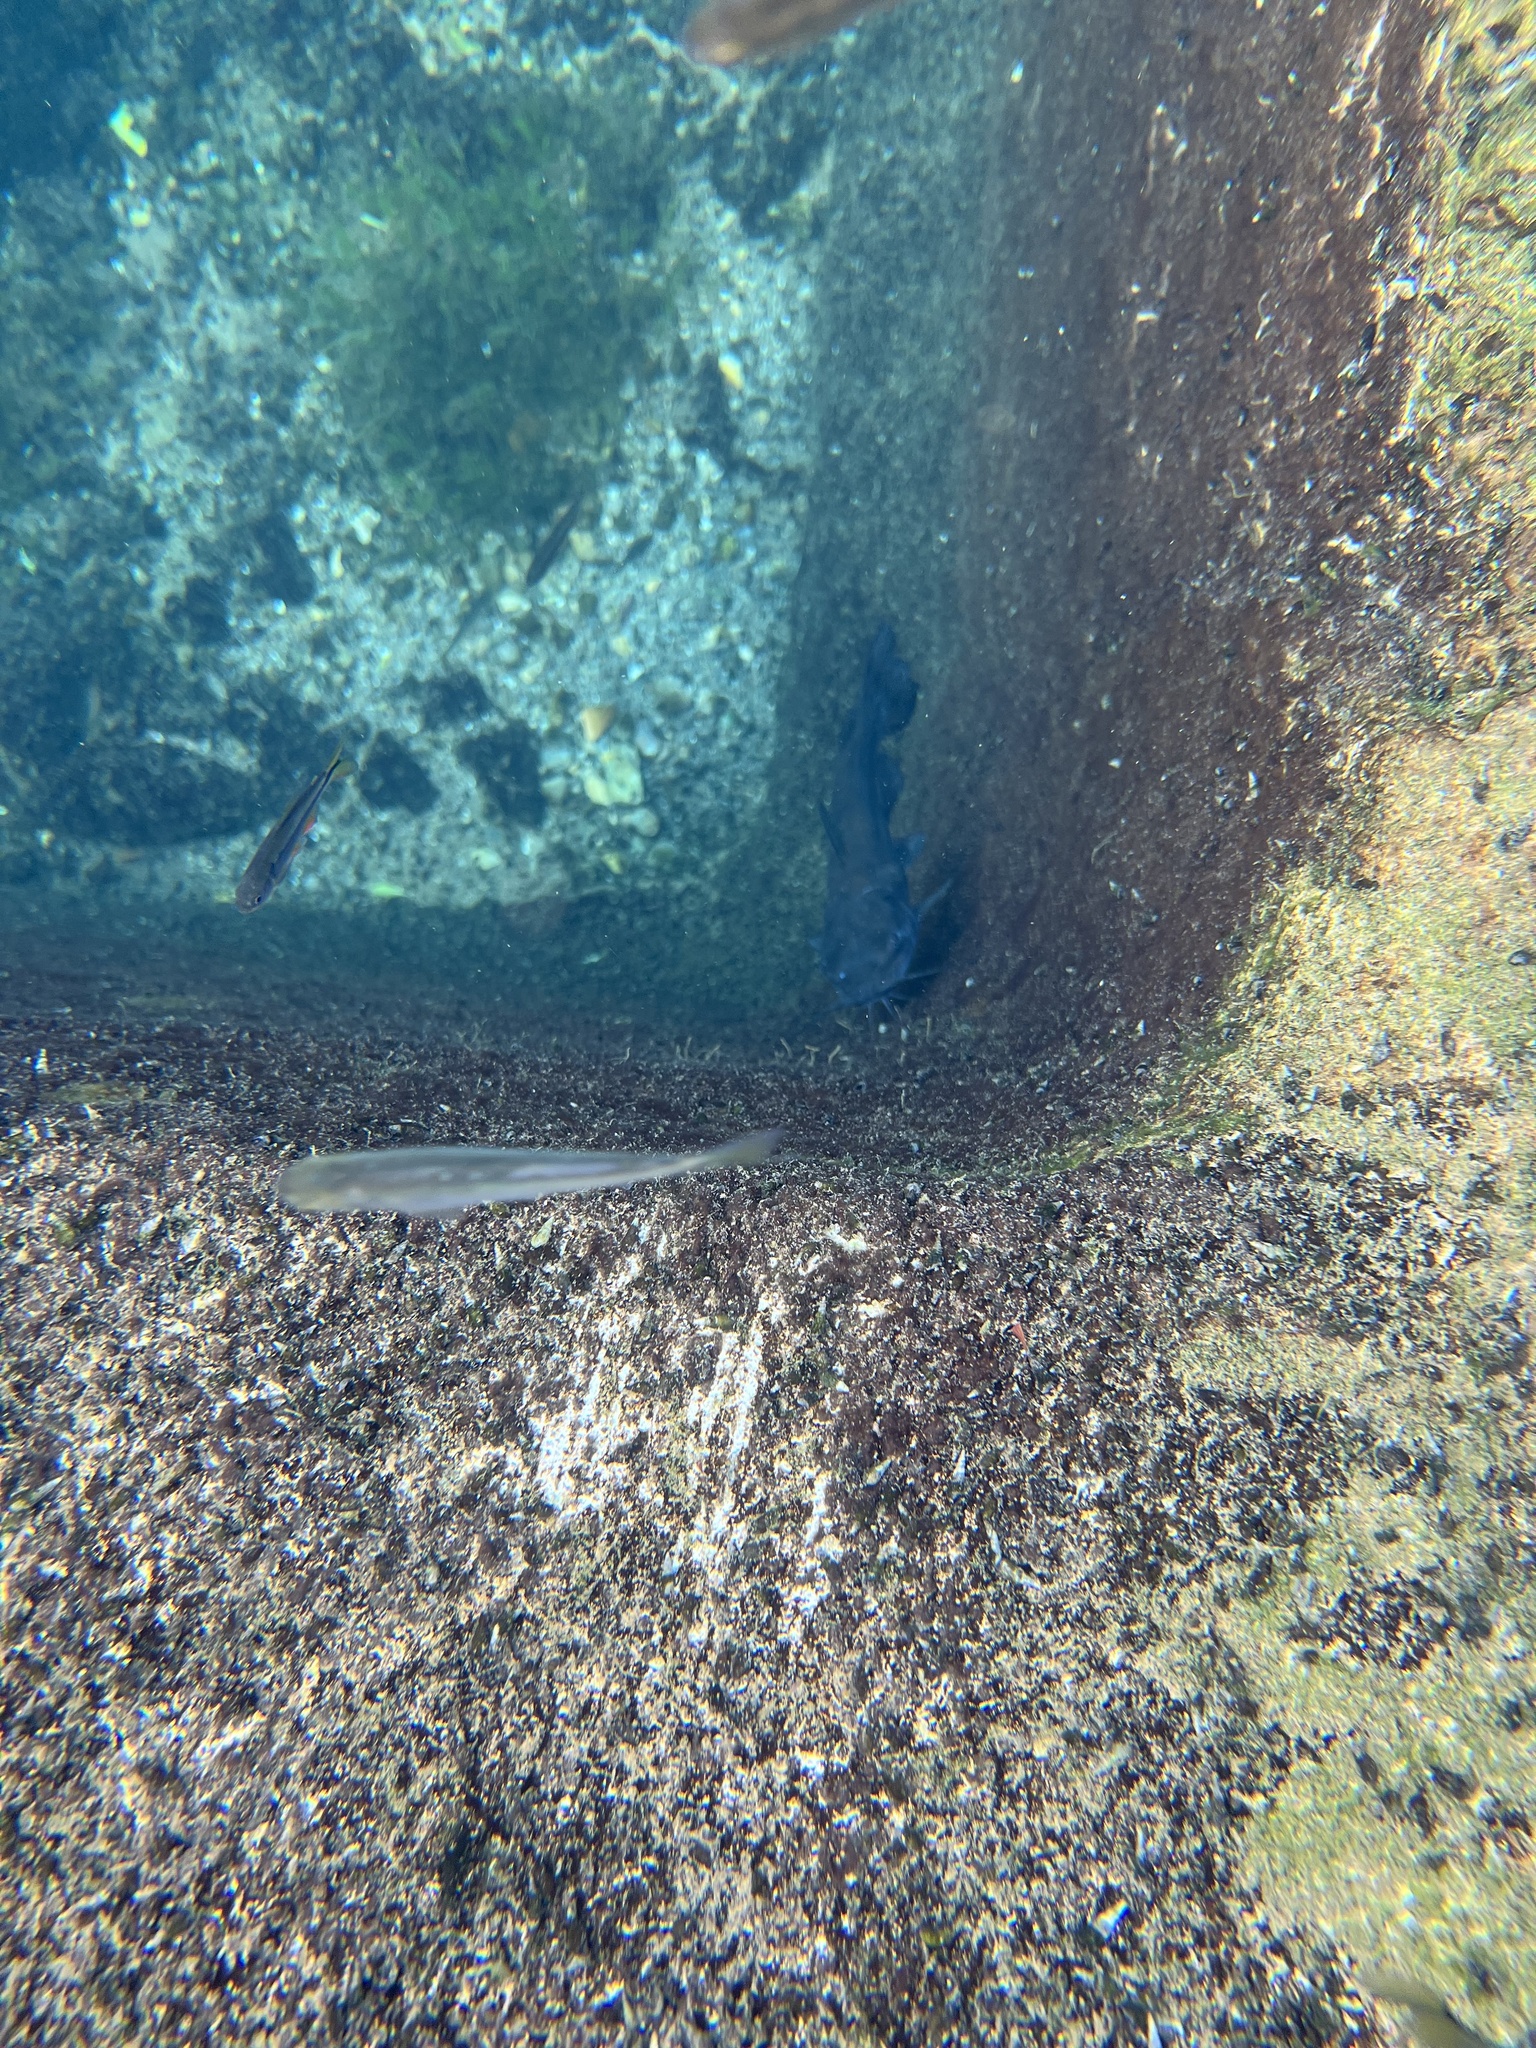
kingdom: Animalia
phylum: Chordata
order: Characiformes
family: Characidae
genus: Astyanax
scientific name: Astyanax mexicanus
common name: Mexican tetra
